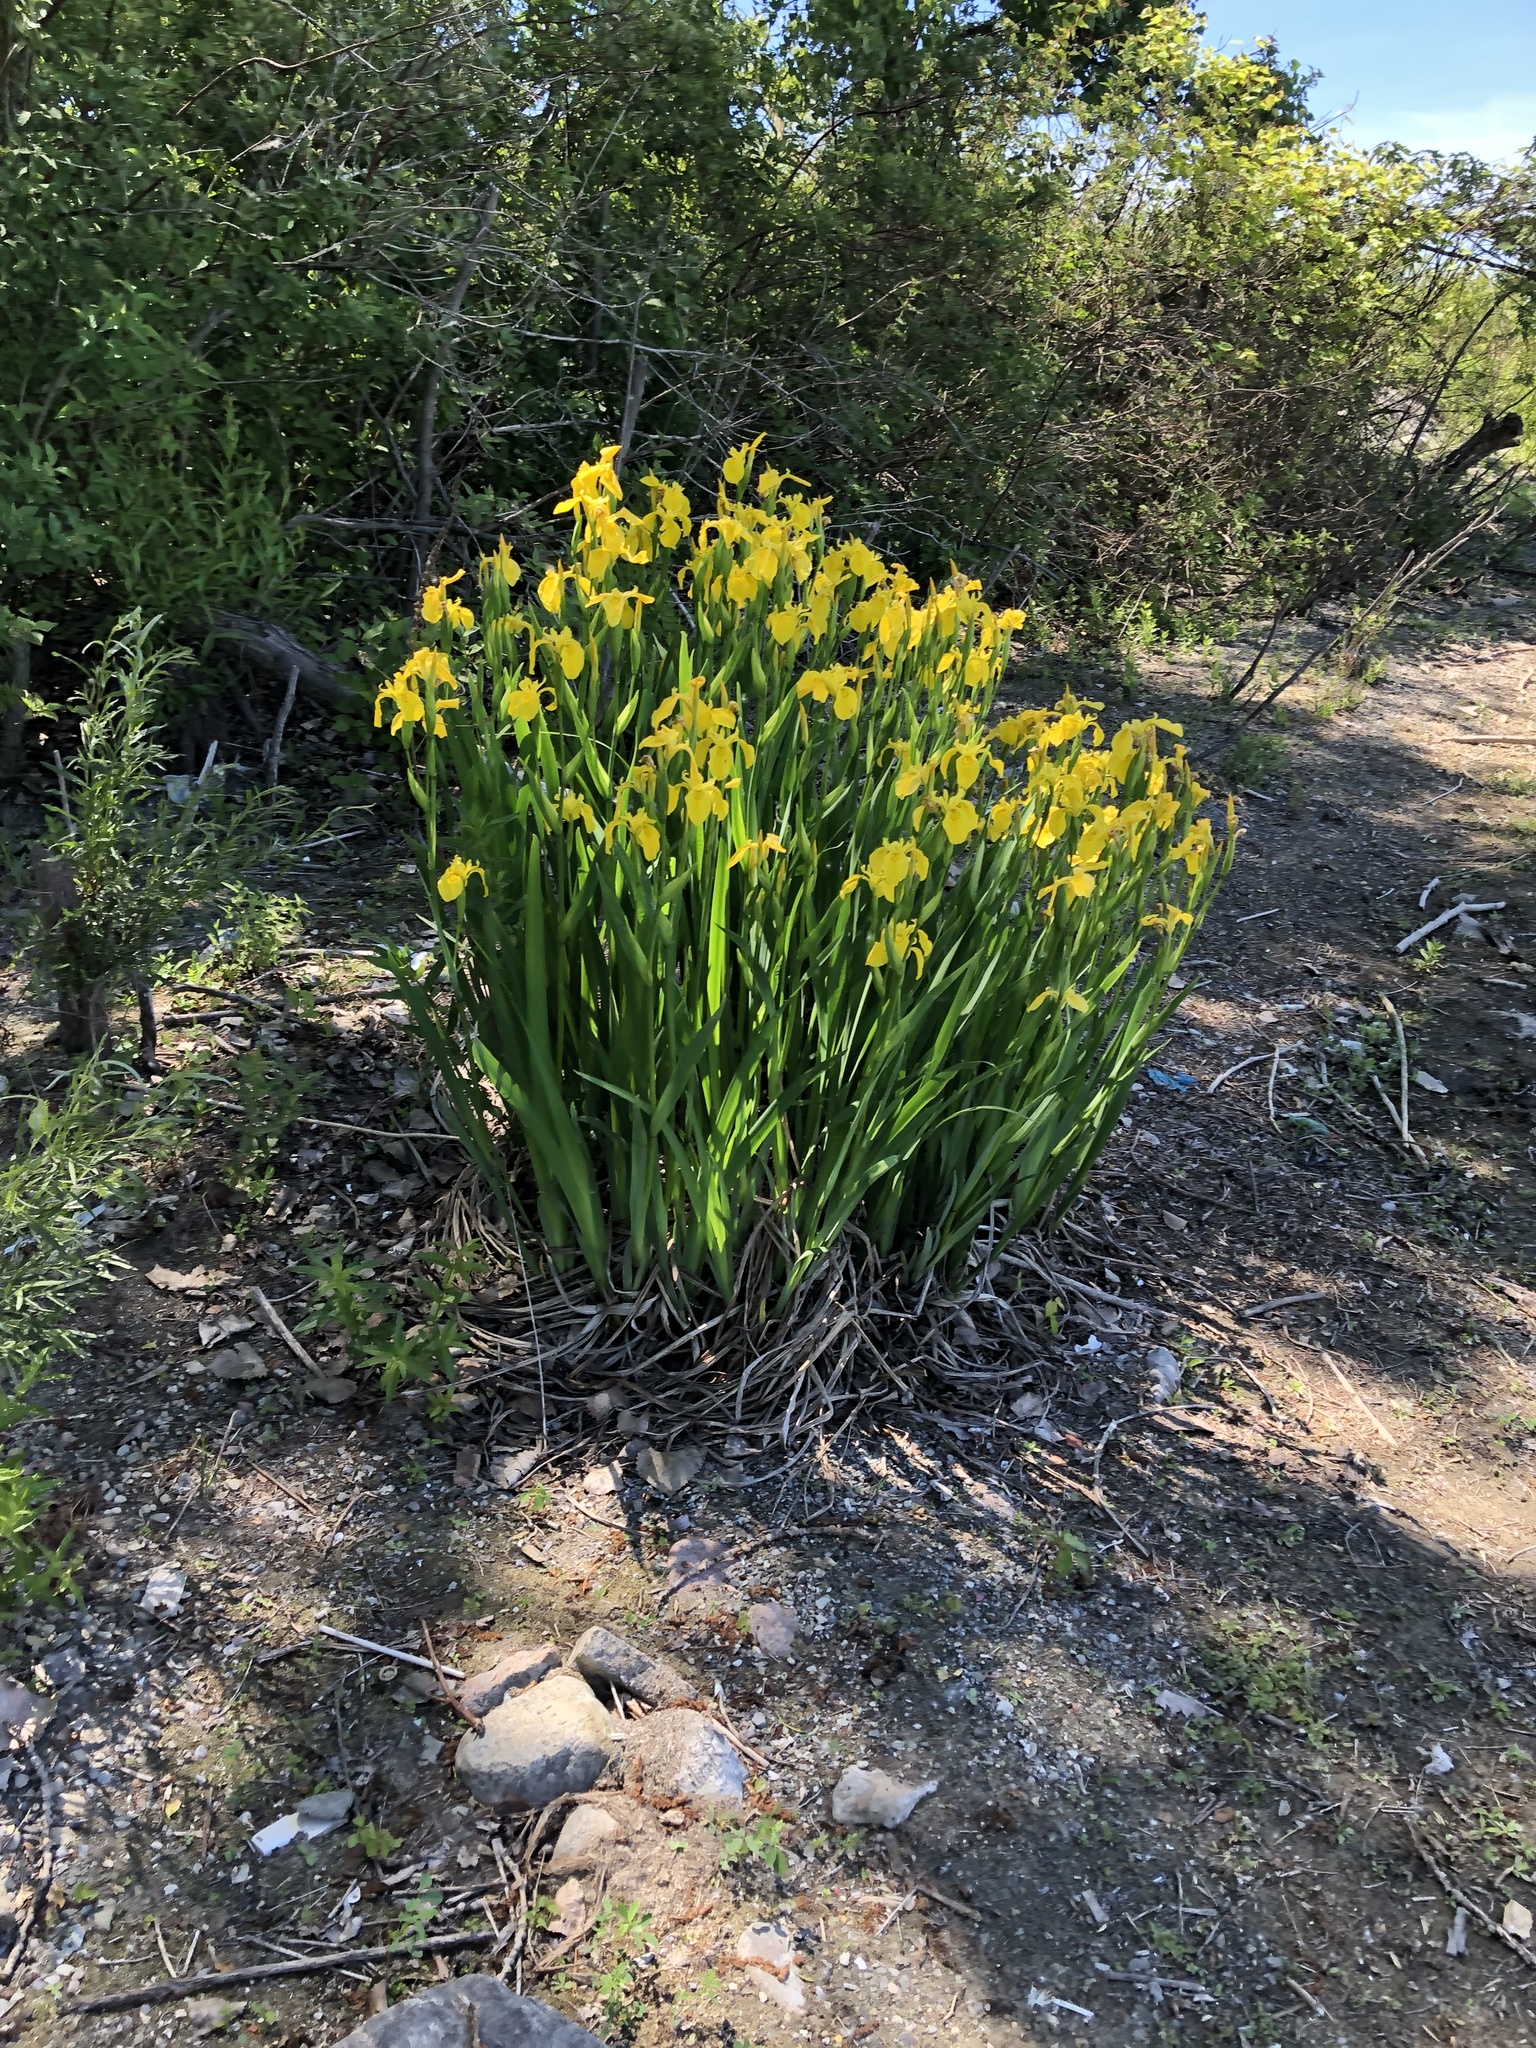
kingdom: Plantae
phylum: Tracheophyta
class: Liliopsida
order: Asparagales
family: Iridaceae
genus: Iris
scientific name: Iris pseudacorus
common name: Yellow flag
